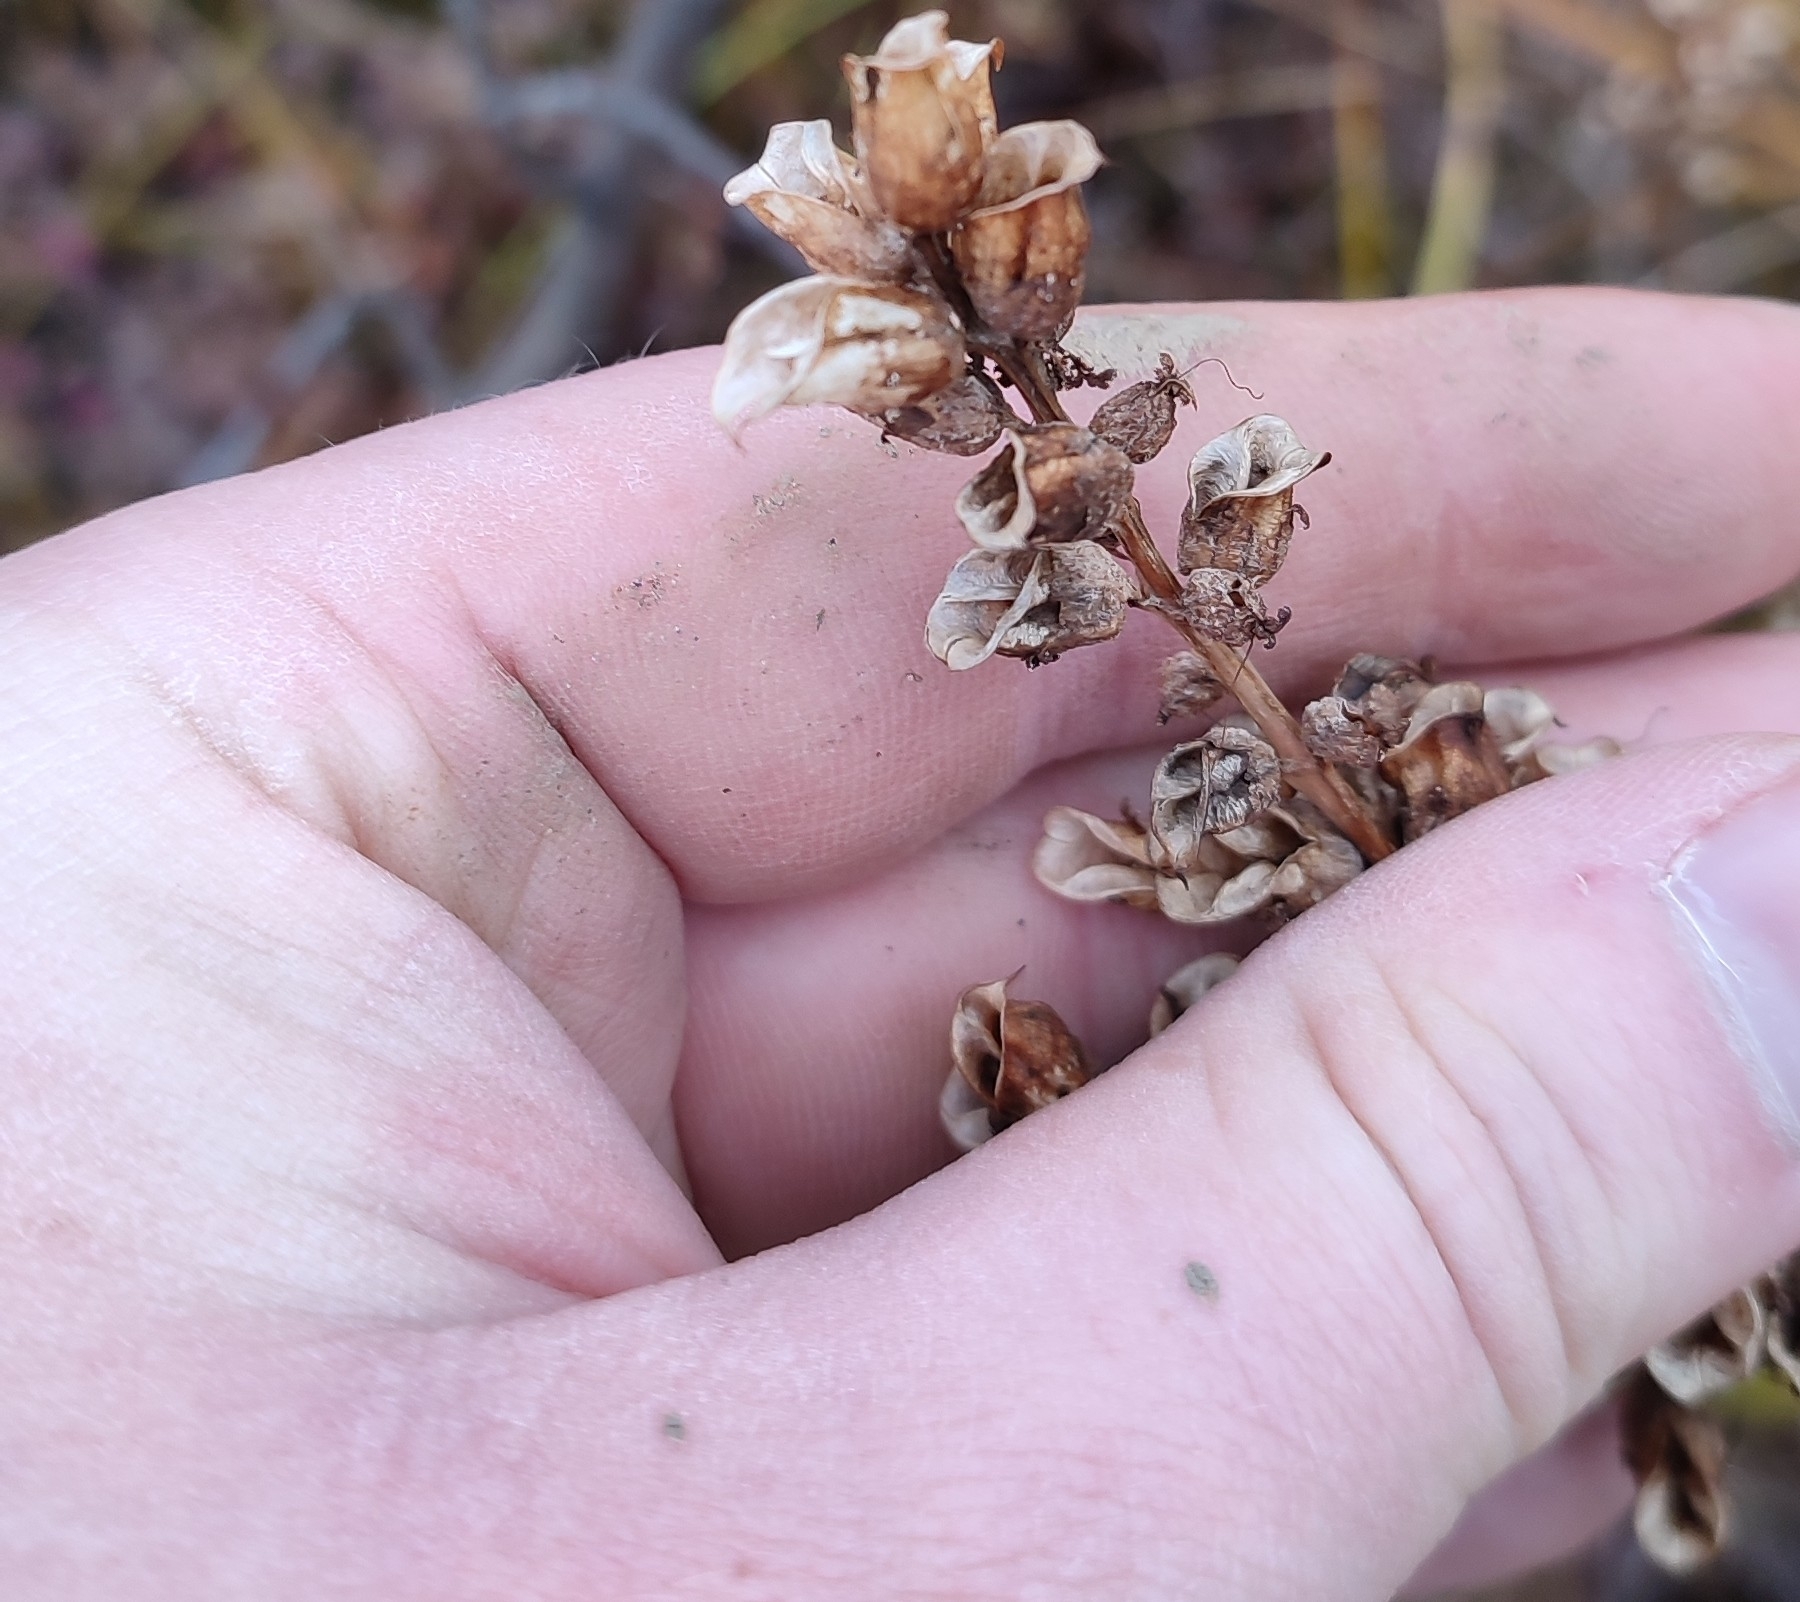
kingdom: Plantae
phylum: Tracheophyta
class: Magnoliopsida
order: Lamiales
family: Orobanchaceae
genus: Pedicularis
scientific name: Pedicularis palustris
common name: Marsh lousewort
